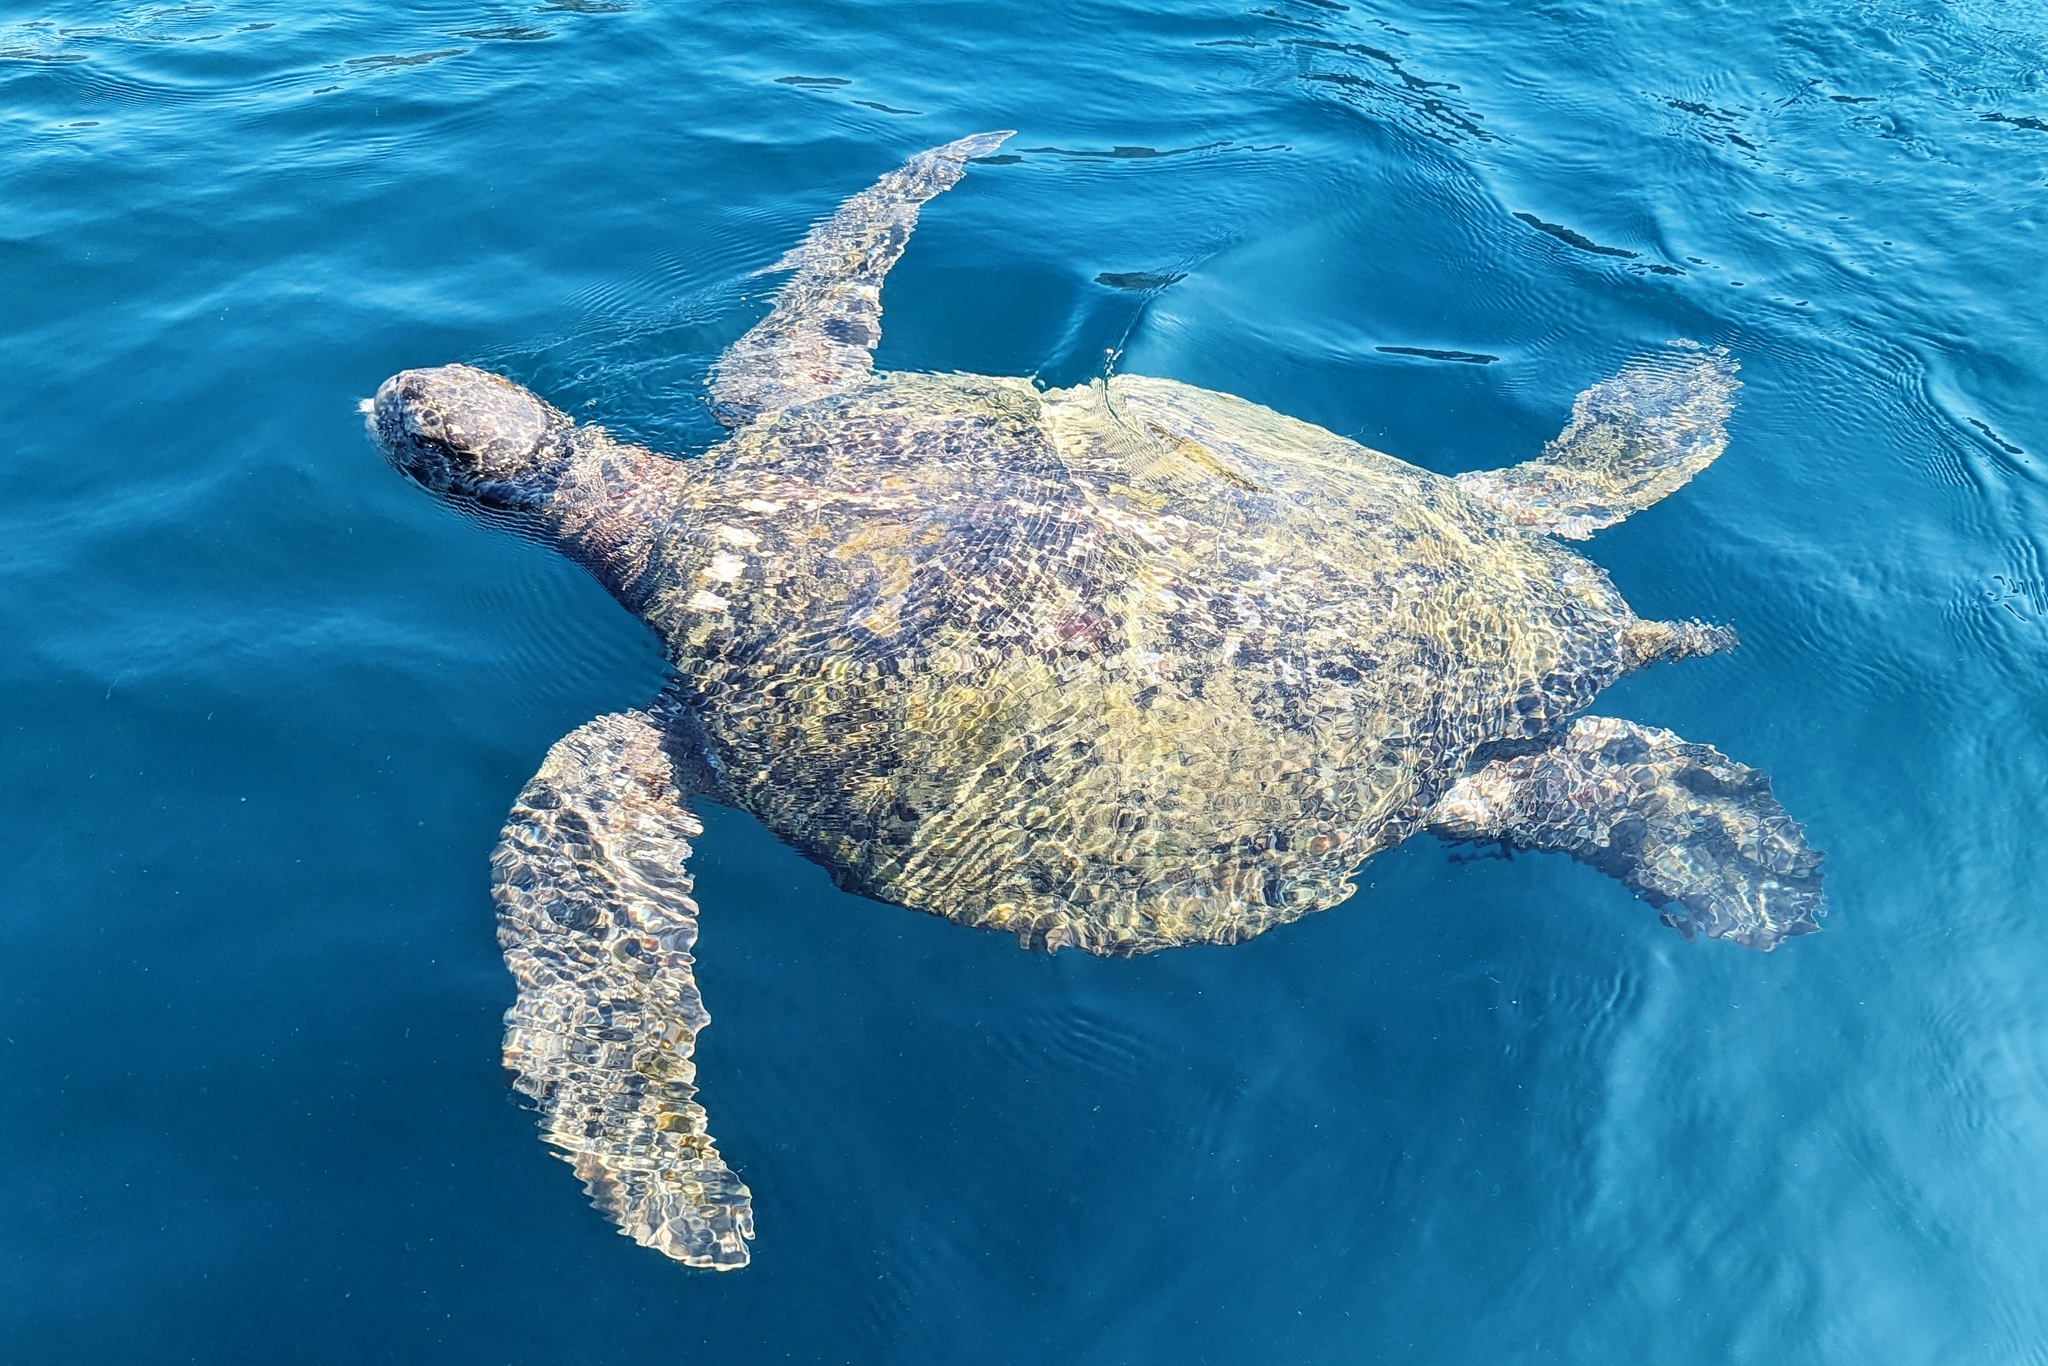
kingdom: Animalia
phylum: Chordata
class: Testudines
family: Cheloniidae
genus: Chelonia
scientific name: Chelonia mydas
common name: Green turtle
